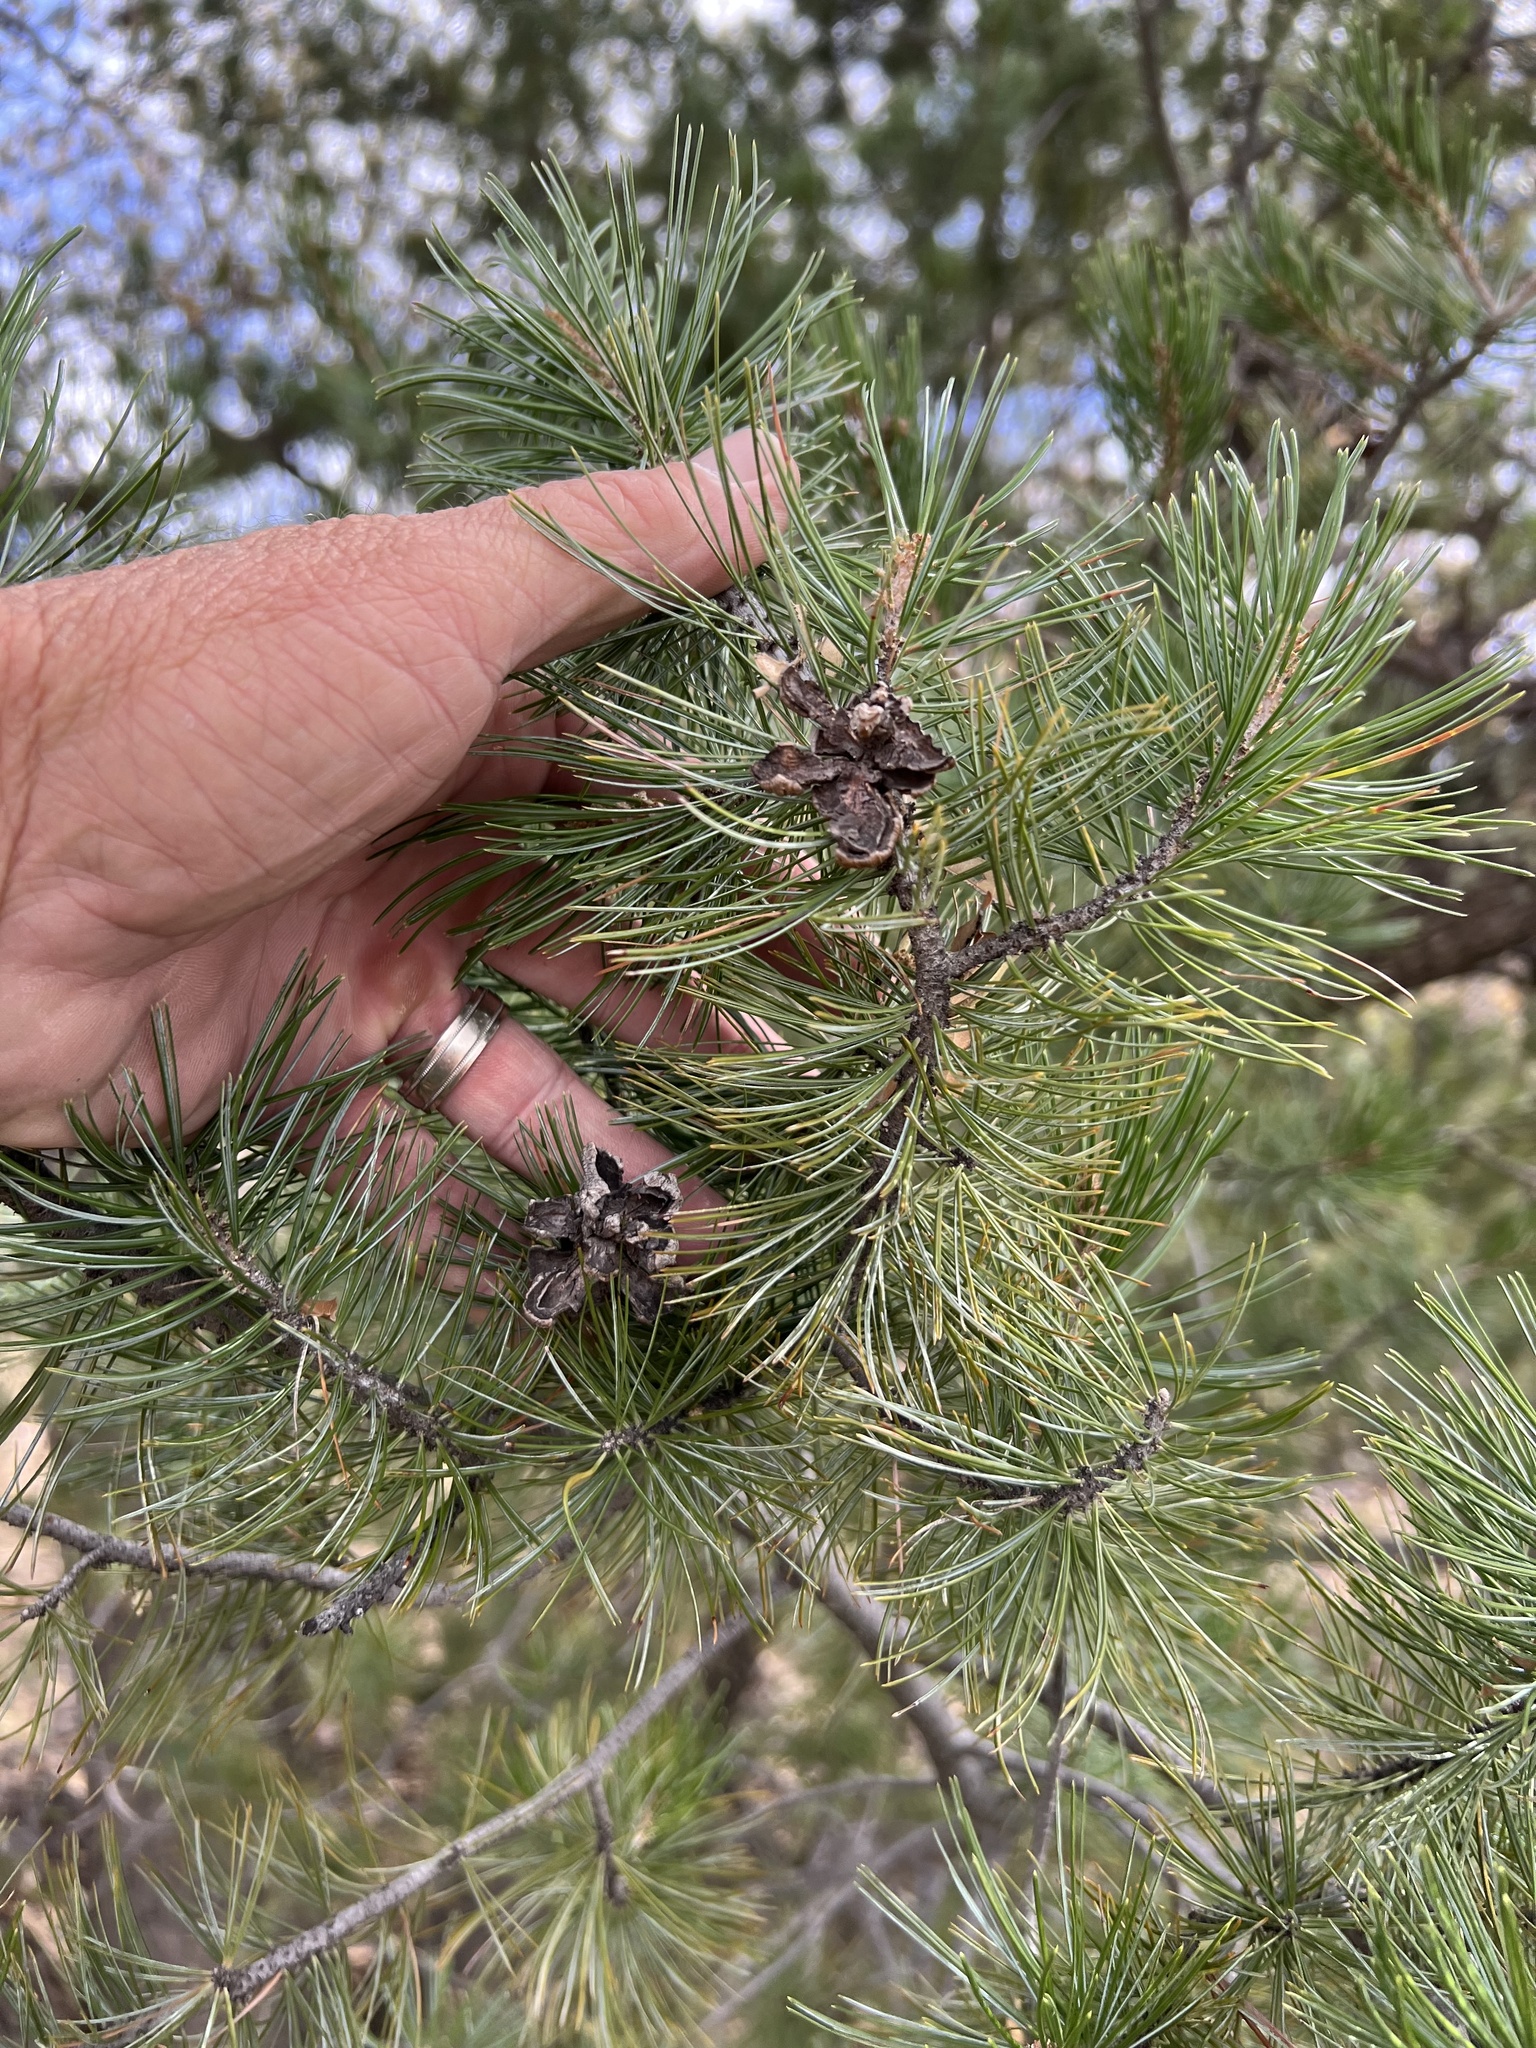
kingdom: Plantae
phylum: Tracheophyta
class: Pinopsida
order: Pinales
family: Pinaceae
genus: Pinus
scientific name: Pinus discolor
